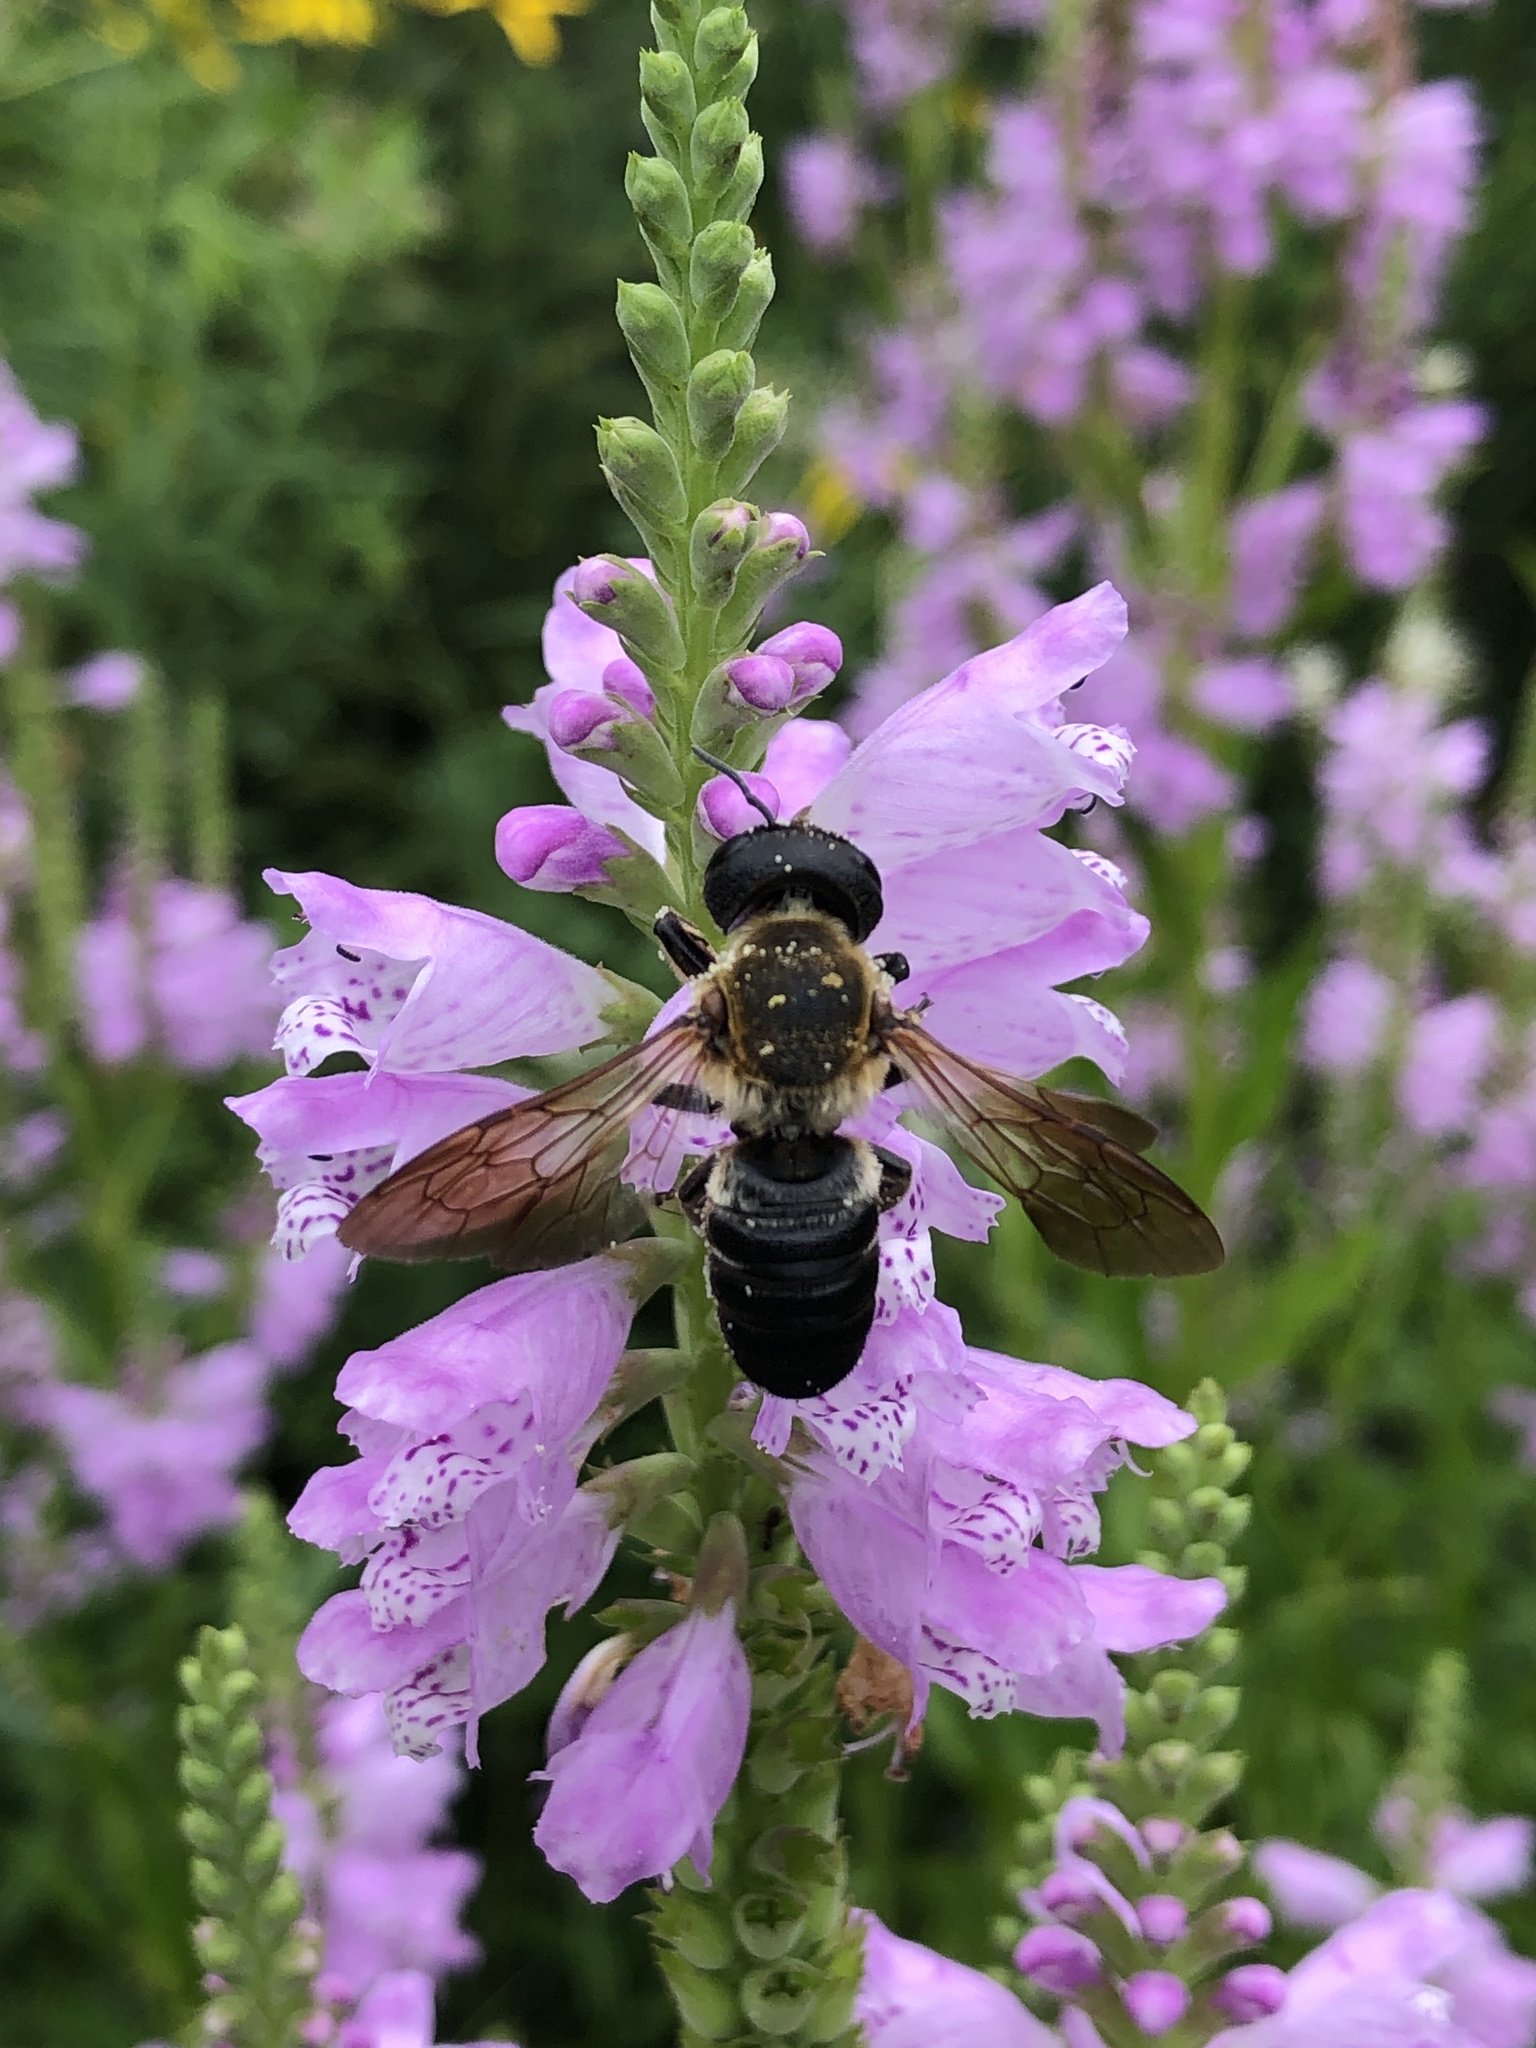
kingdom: Animalia
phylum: Arthropoda
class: Insecta
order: Hymenoptera
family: Megachilidae
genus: Megachile
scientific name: Megachile sculpturalis
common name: Sculptured resin bee
